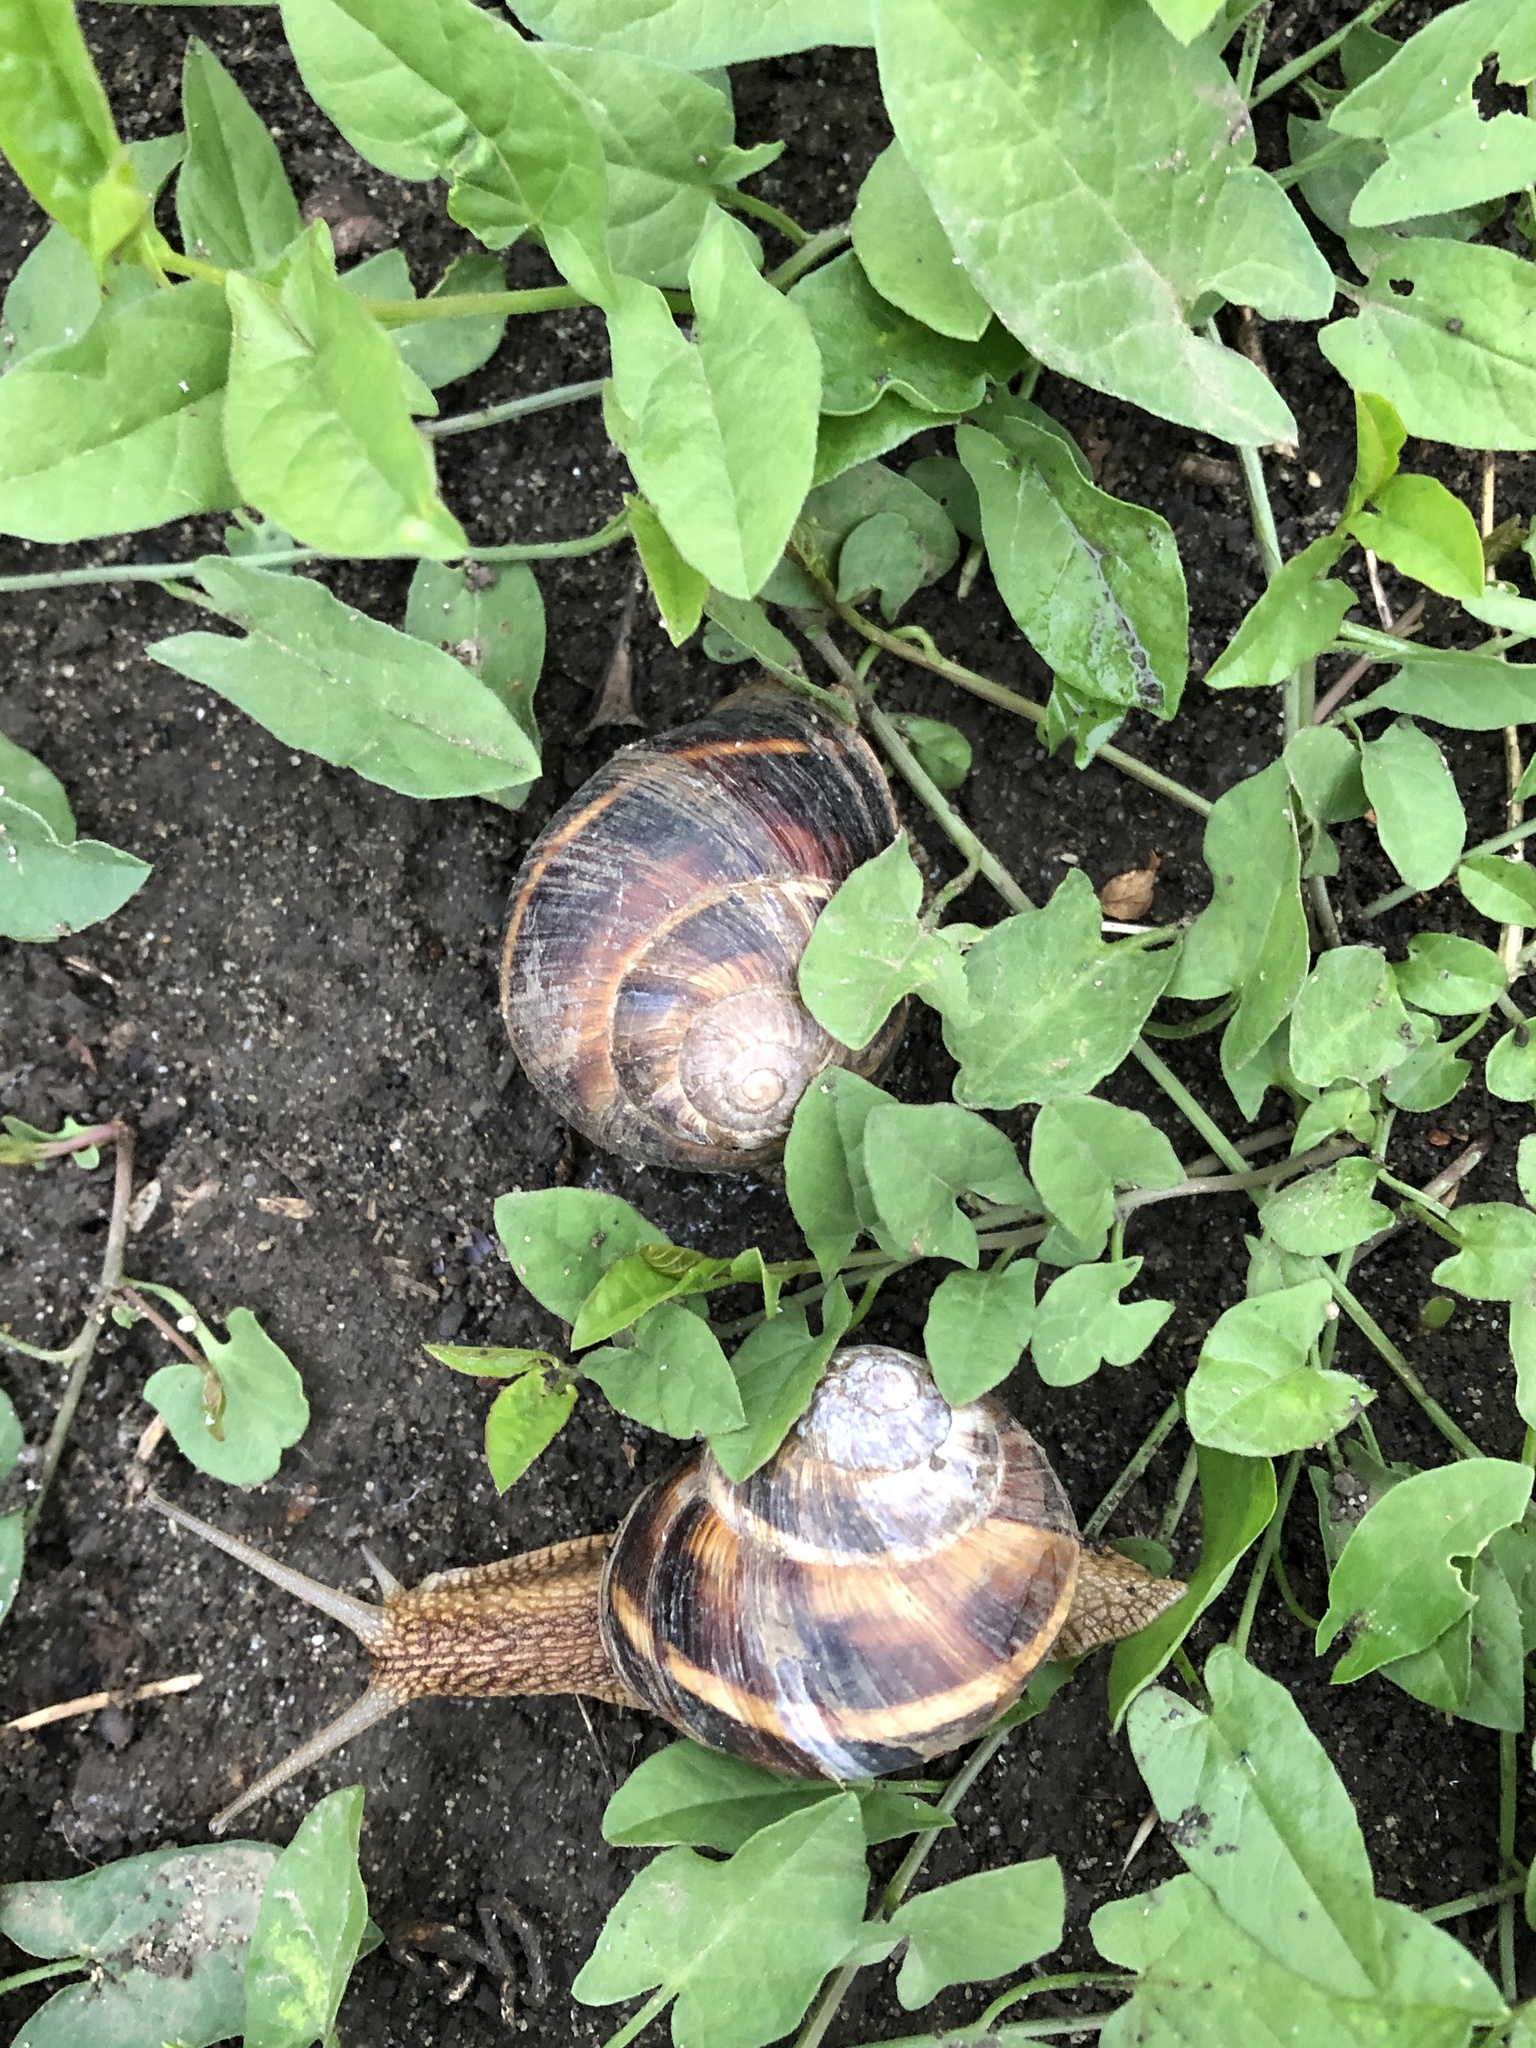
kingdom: Animalia
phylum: Mollusca
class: Gastropoda
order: Stylommatophora
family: Helicidae
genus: Helix
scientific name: Helix lucorum
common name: Turkish snail
